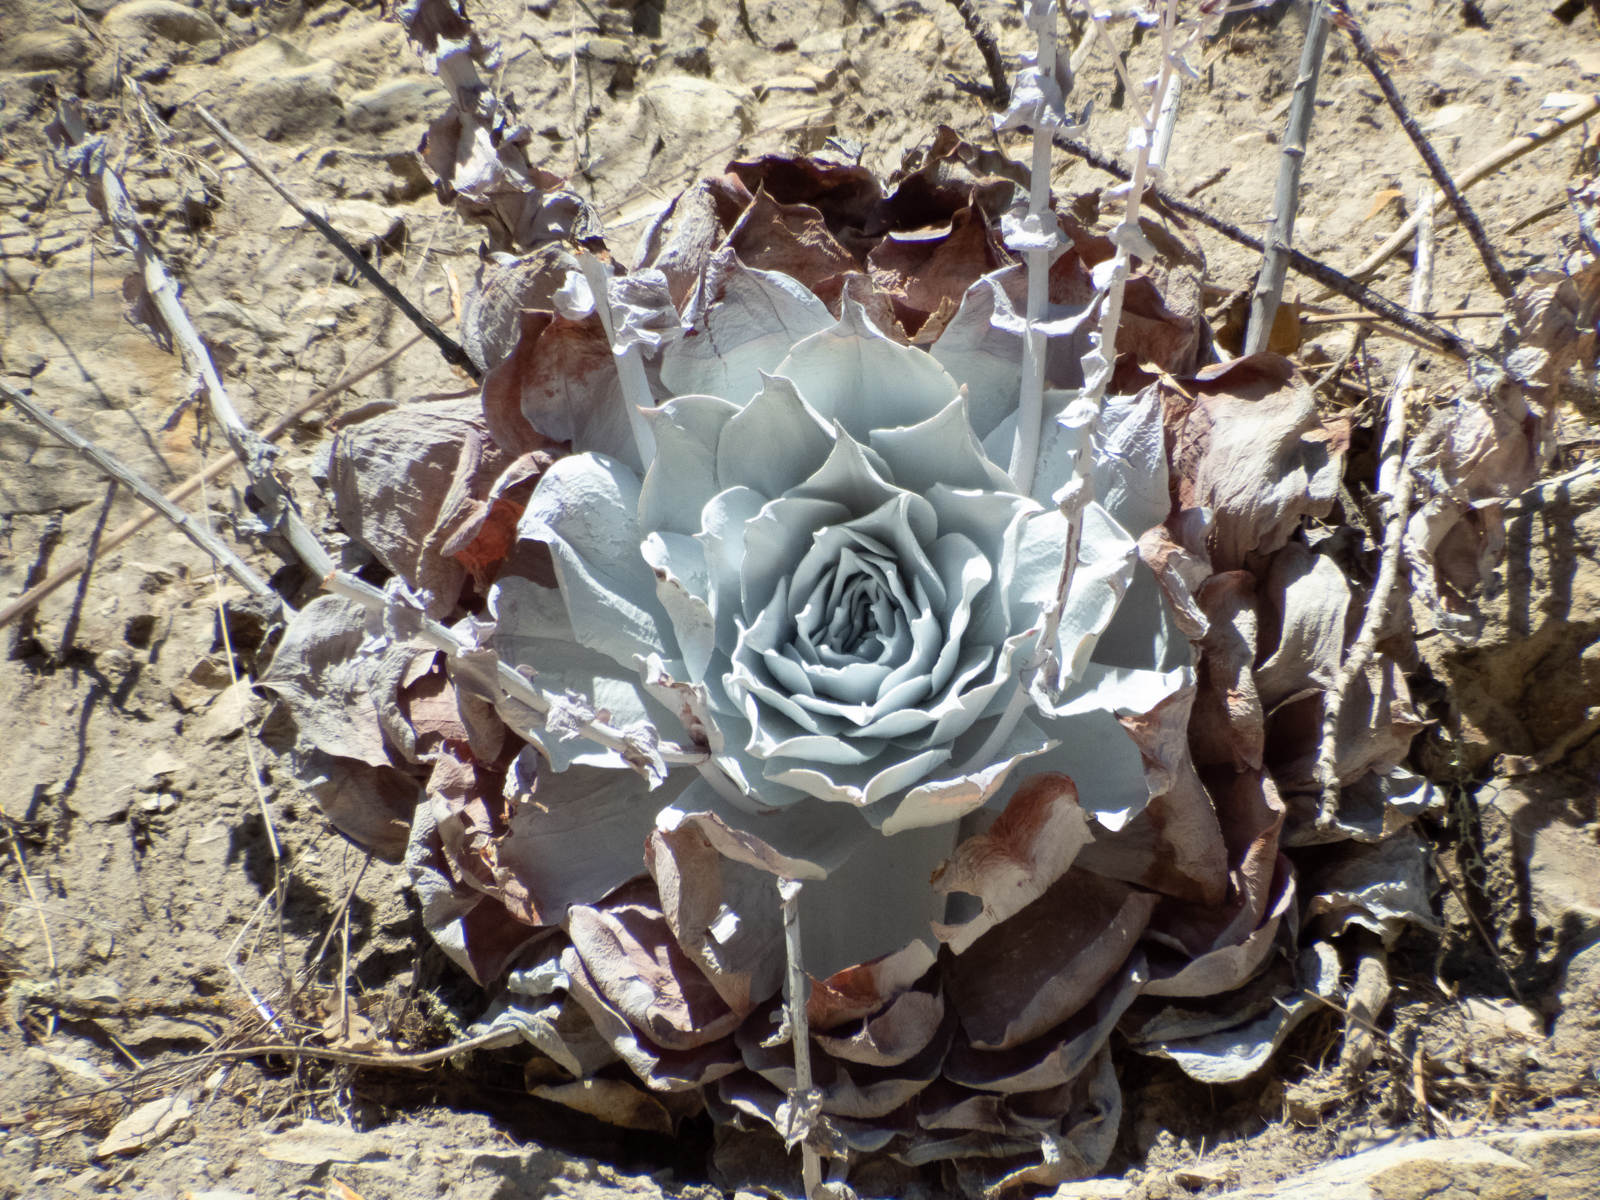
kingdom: Plantae
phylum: Tracheophyta
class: Magnoliopsida
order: Saxifragales
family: Crassulaceae
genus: Dudleya
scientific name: Dudleya pulverulenta
